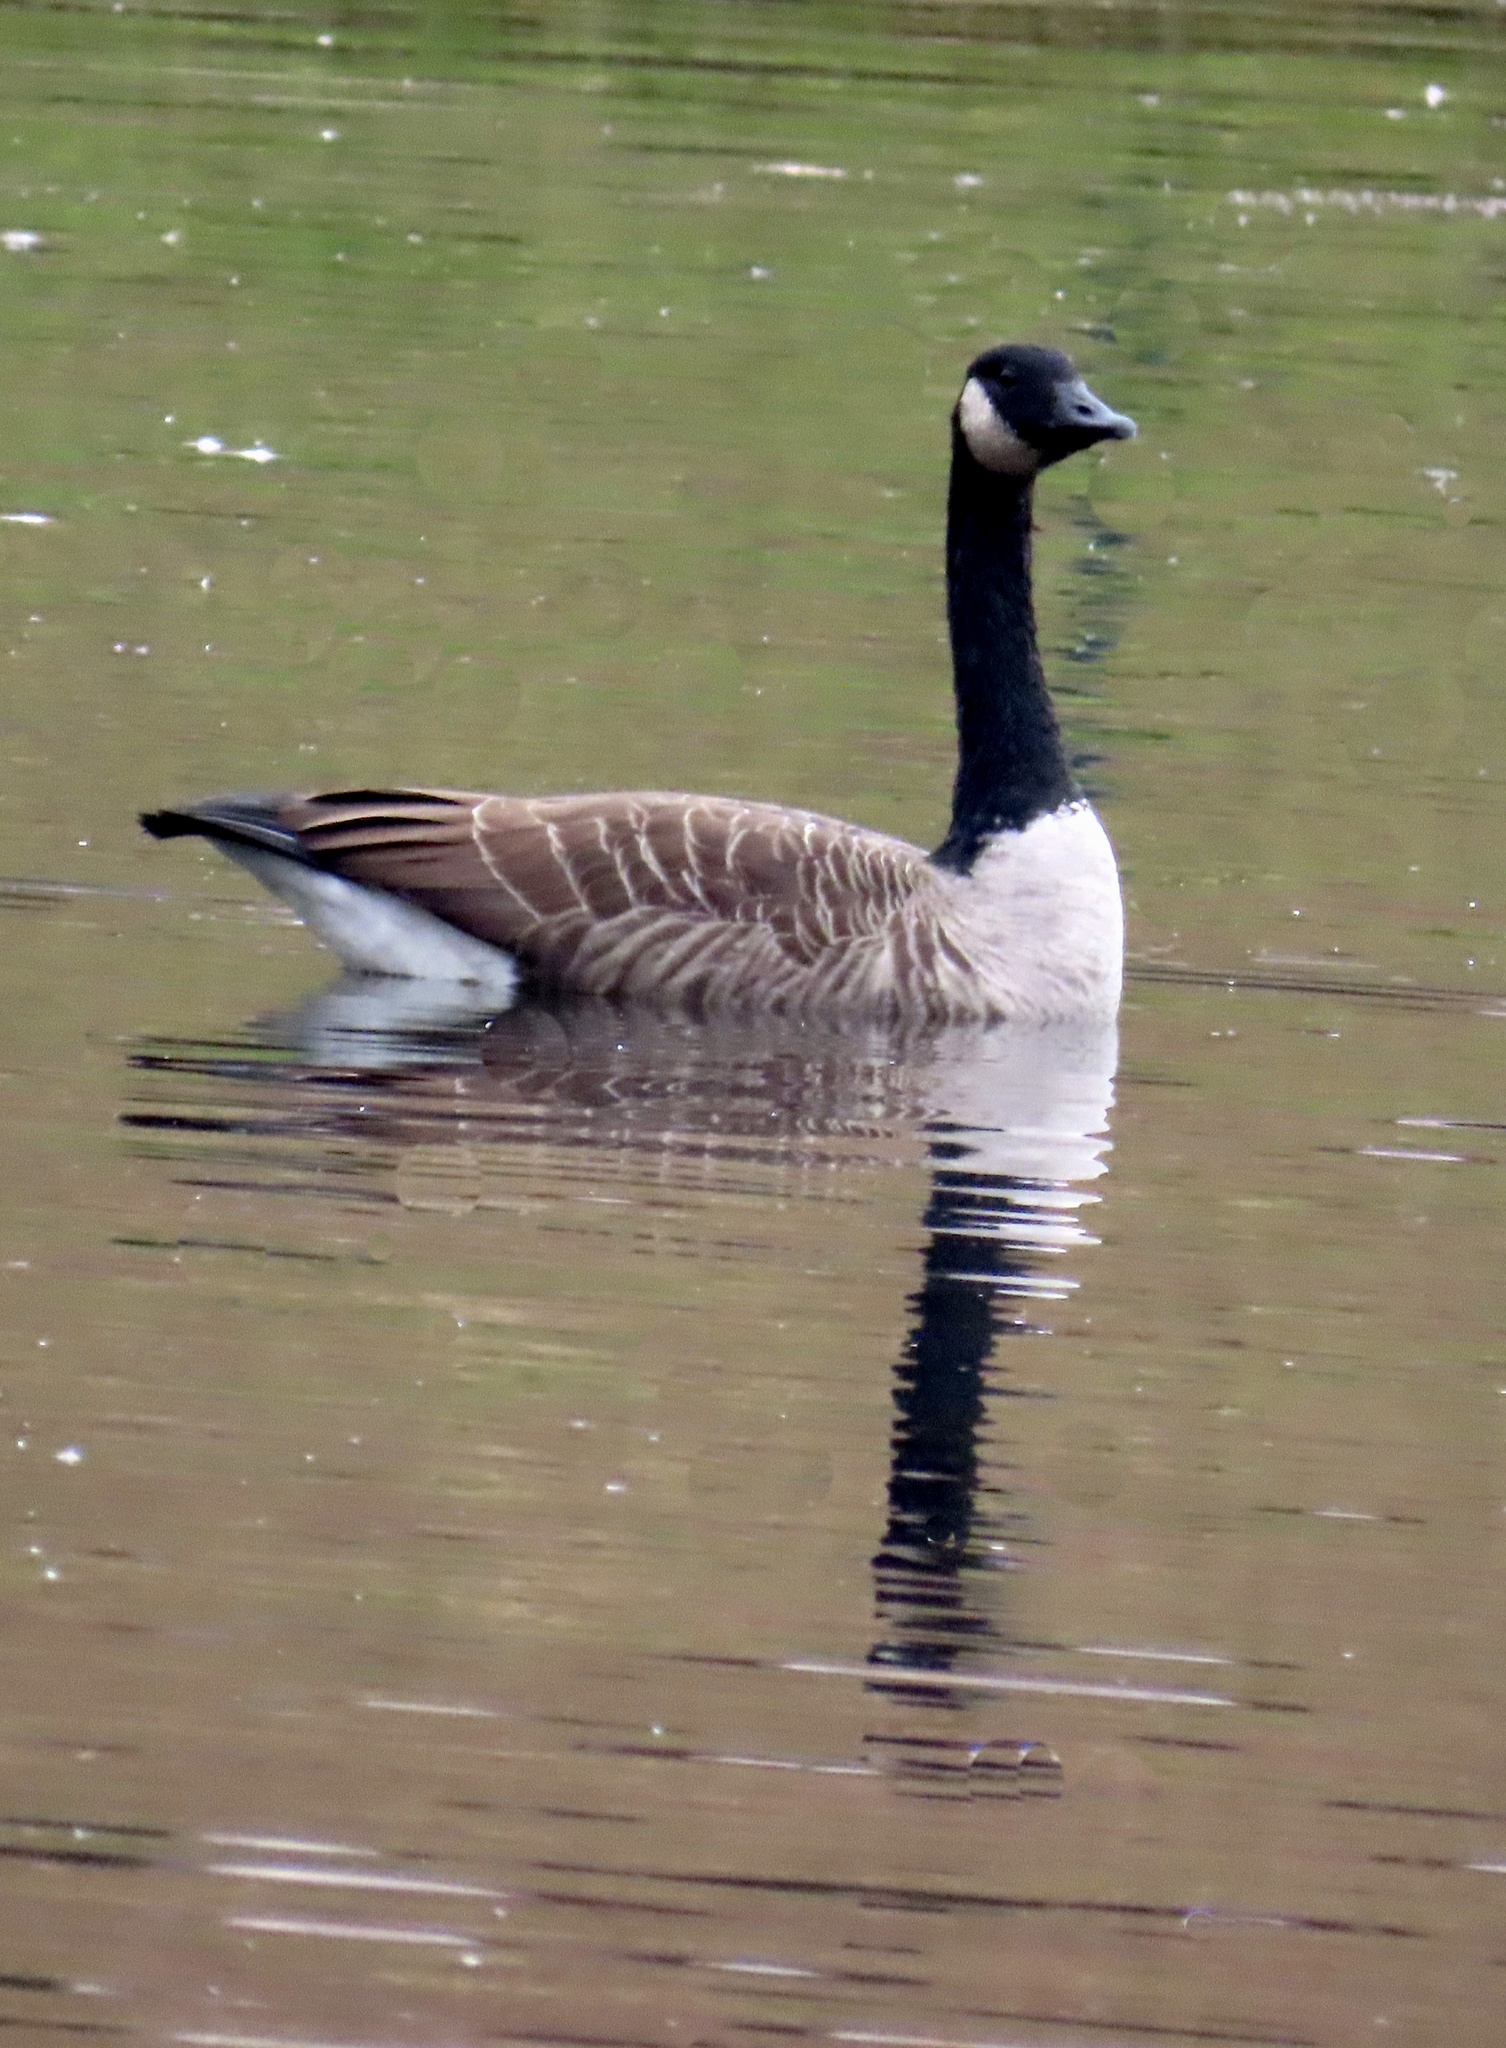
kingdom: Animalia
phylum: Chordata
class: Aves
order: Anseriformes
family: Anatidae
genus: Branta
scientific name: Branta canadensis
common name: Canada goose
